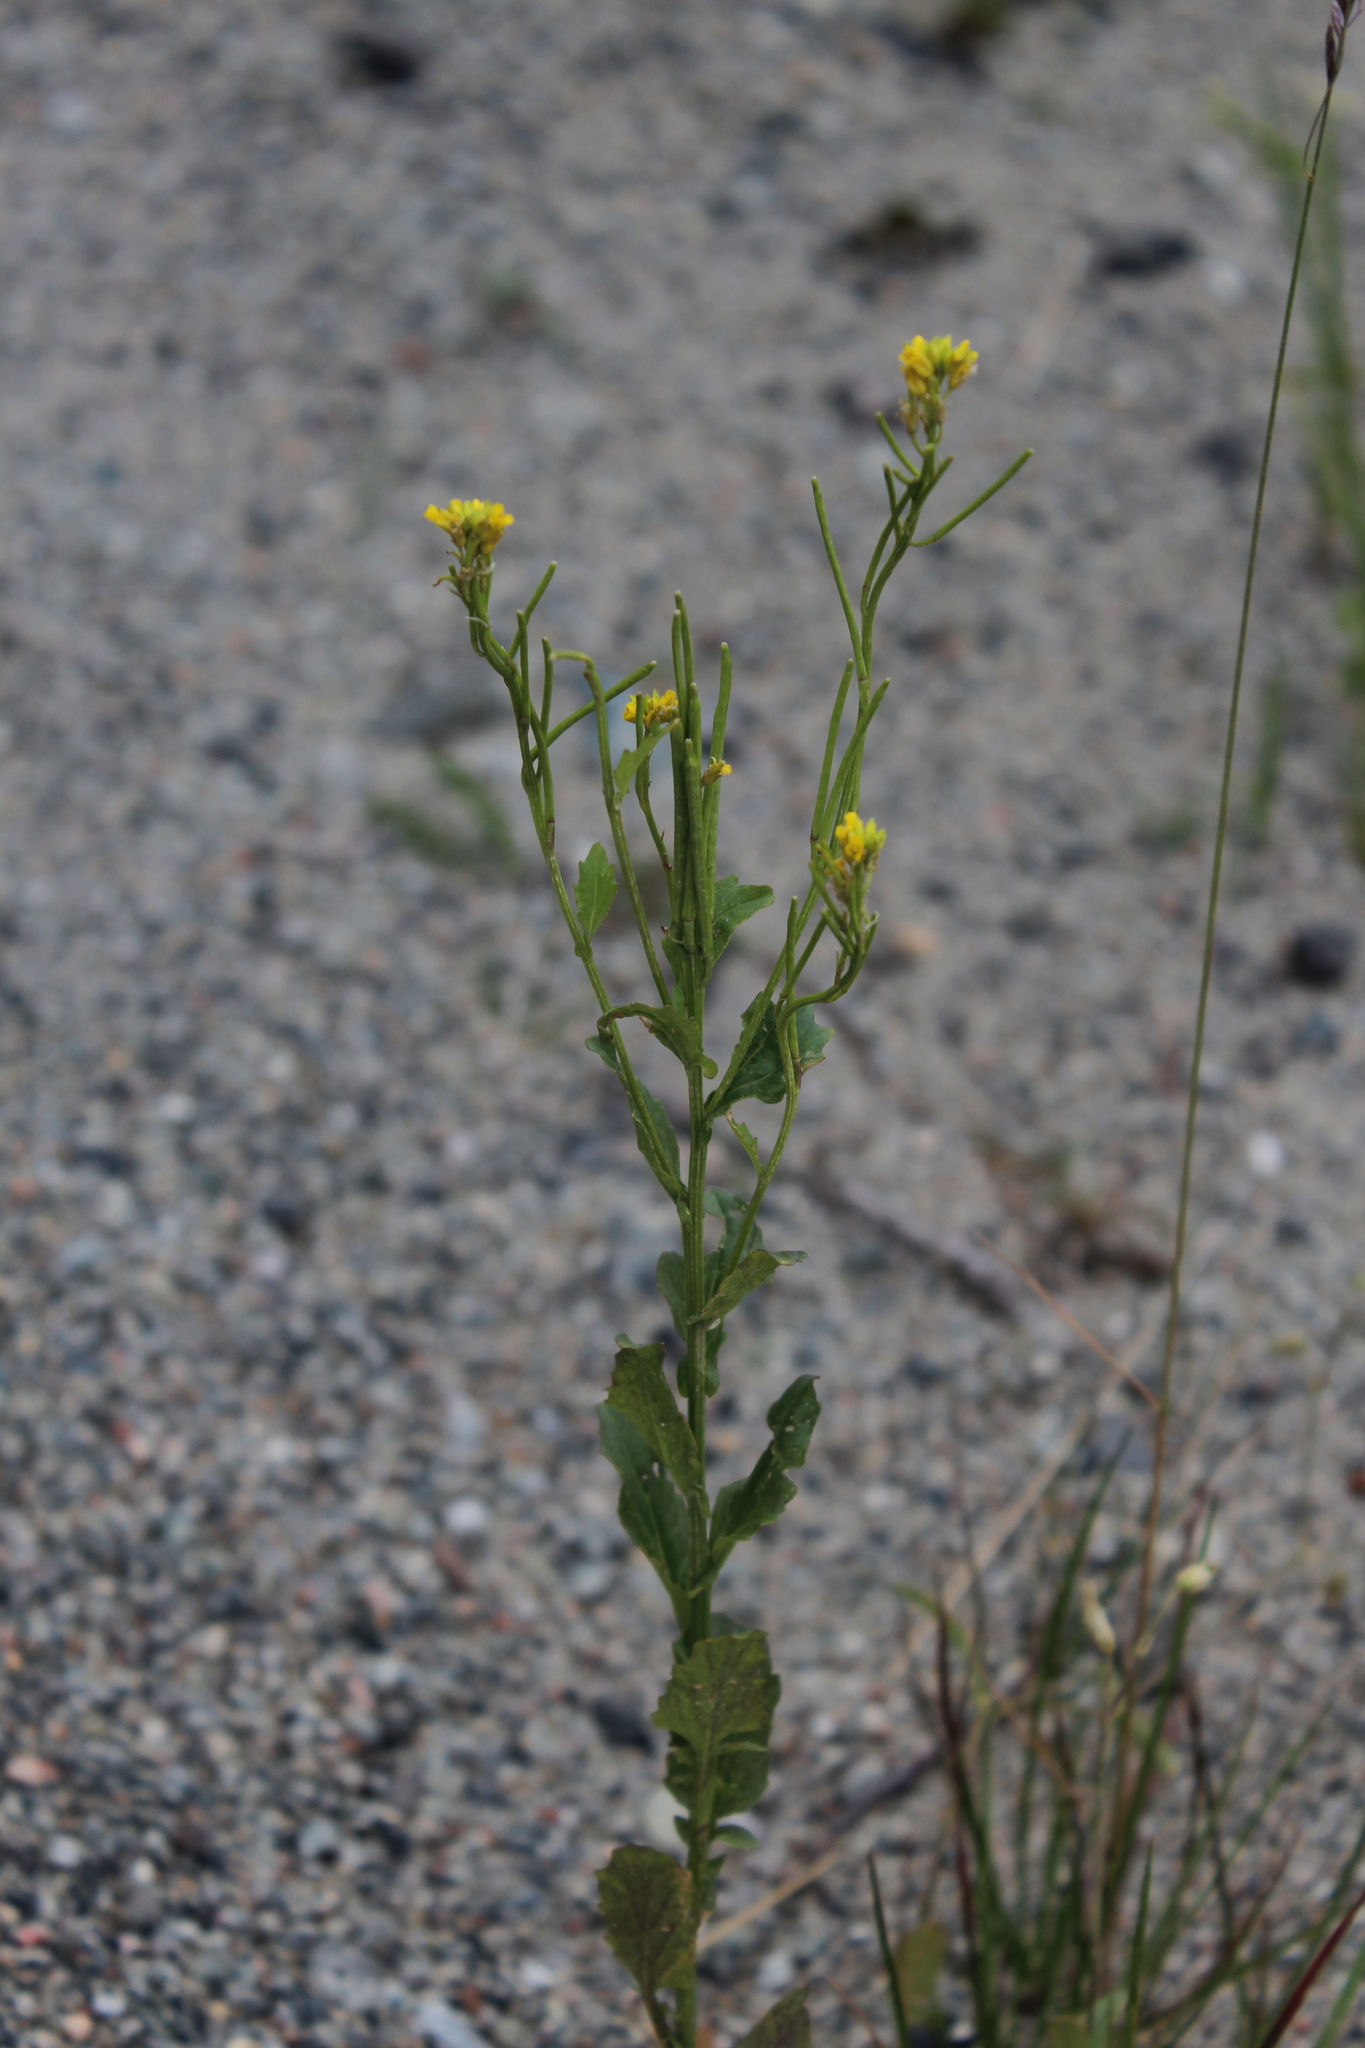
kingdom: Plantae
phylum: Tracheophyta
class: Magnoliopsida
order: Brassicales
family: Brassicaceae
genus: Barbarea
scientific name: Barbarea stricta
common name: Small-flowered winter-cress
